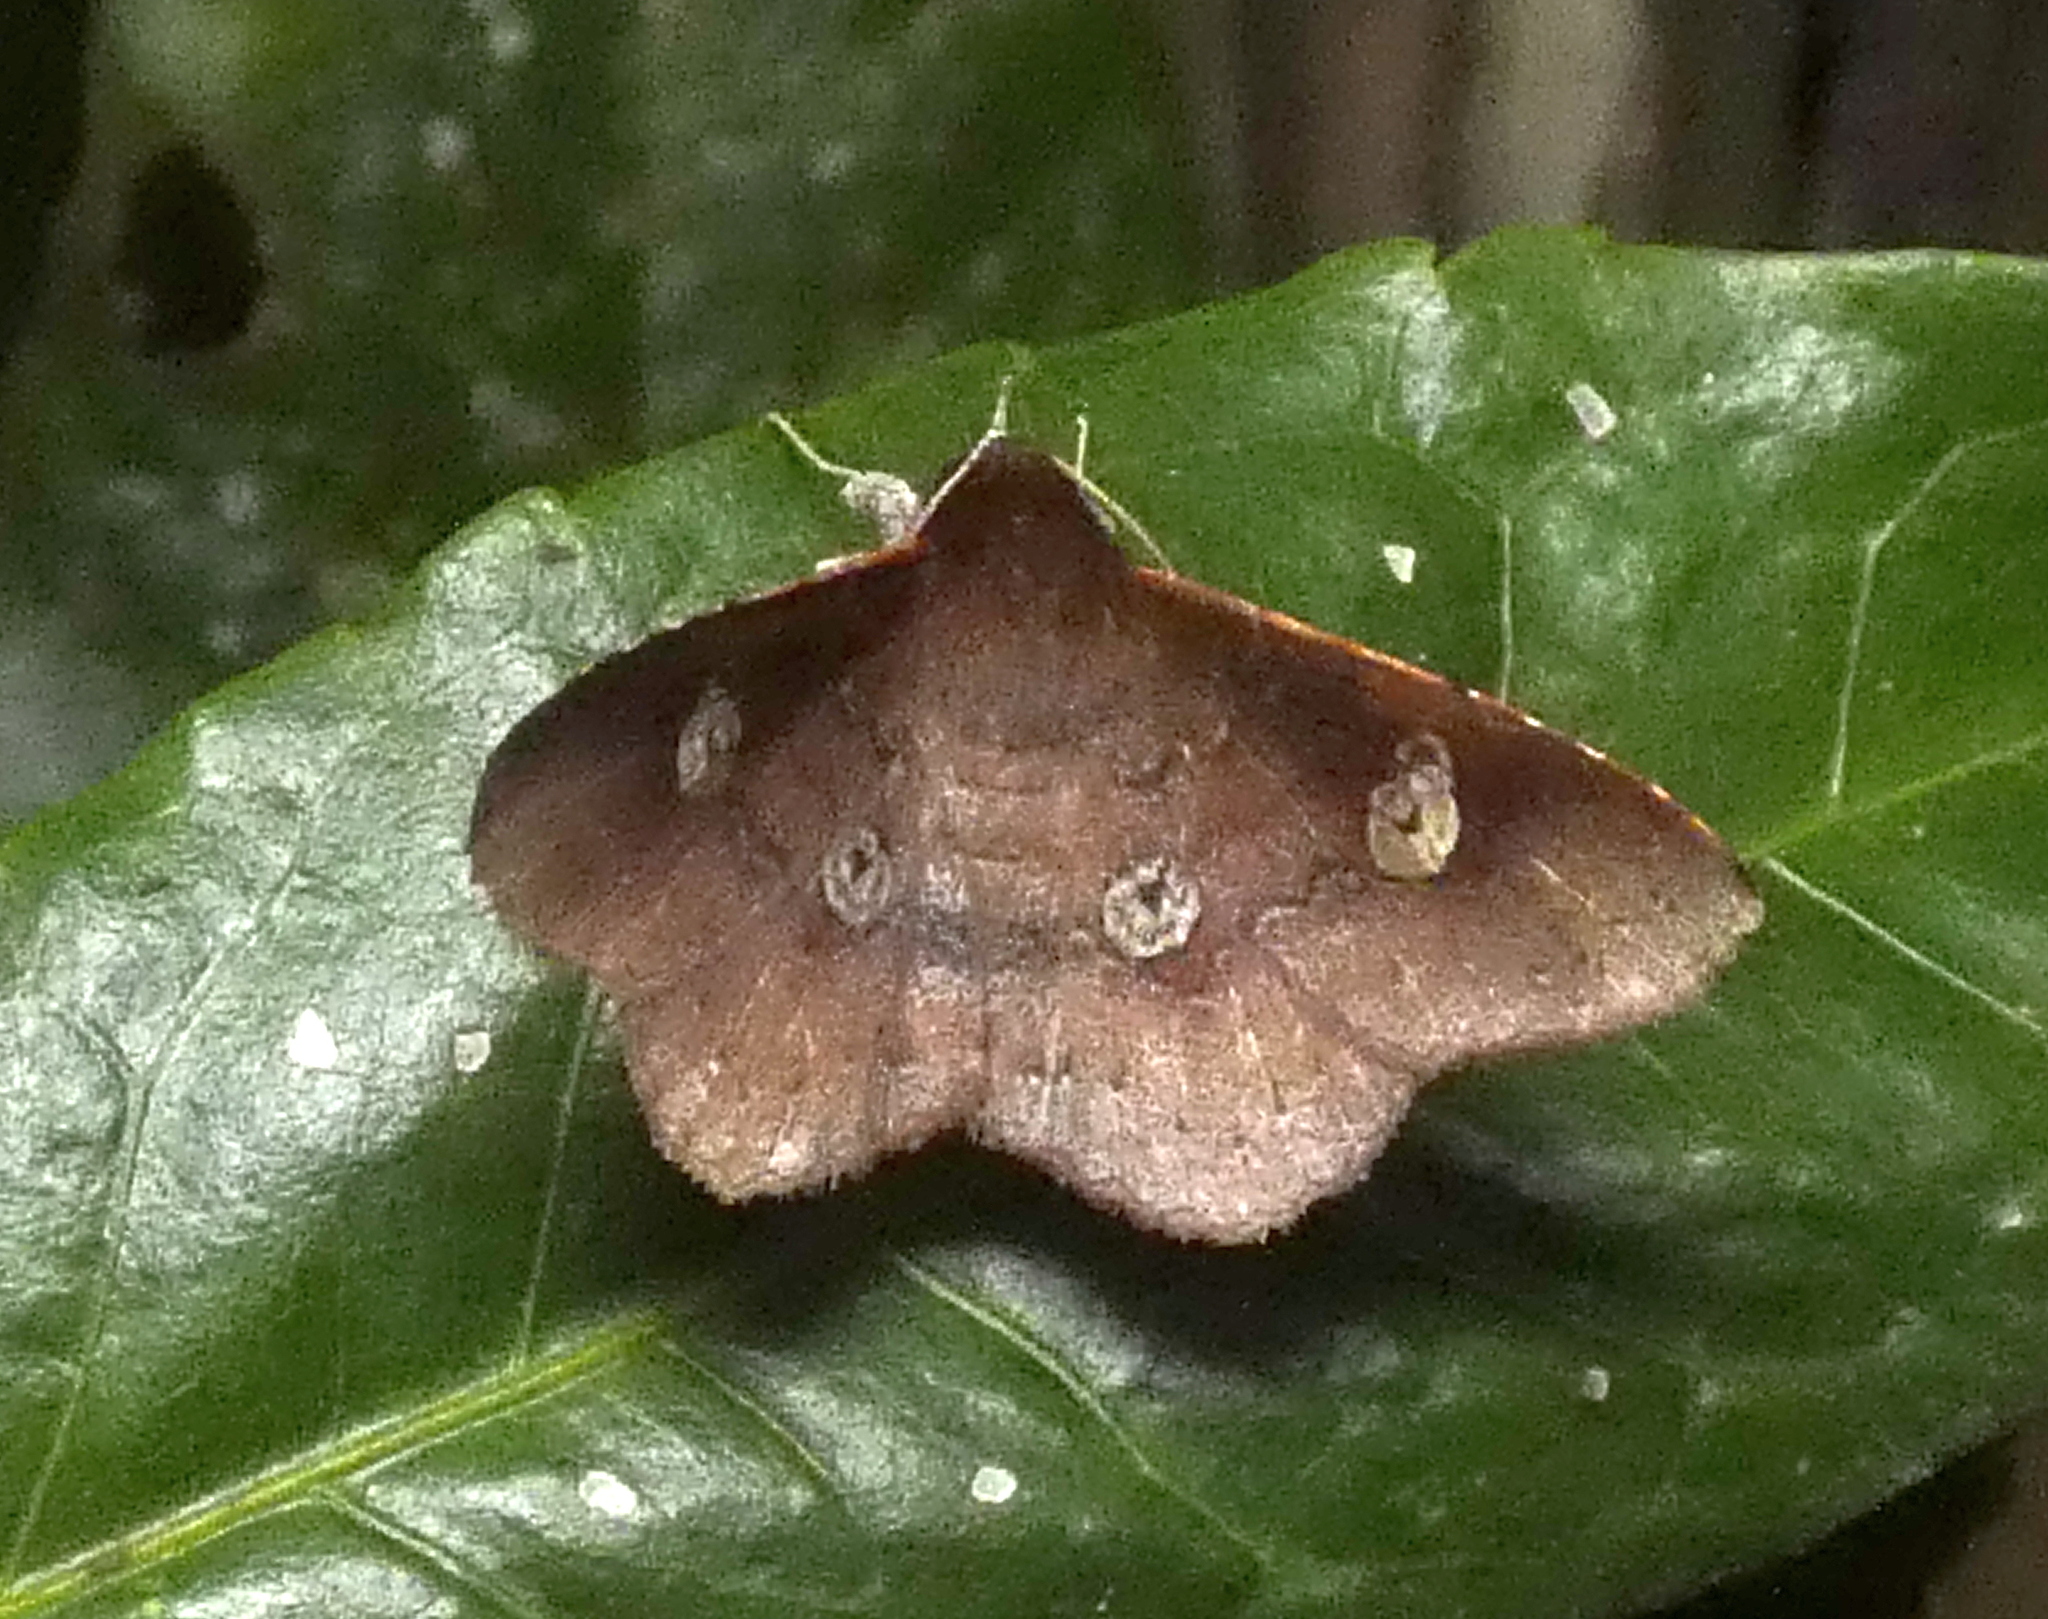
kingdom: Animalia
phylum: Arthropoda
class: Insecta
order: Lepidoptera
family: Erebidae
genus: Oxidercia
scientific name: Oxidercia apicalis
